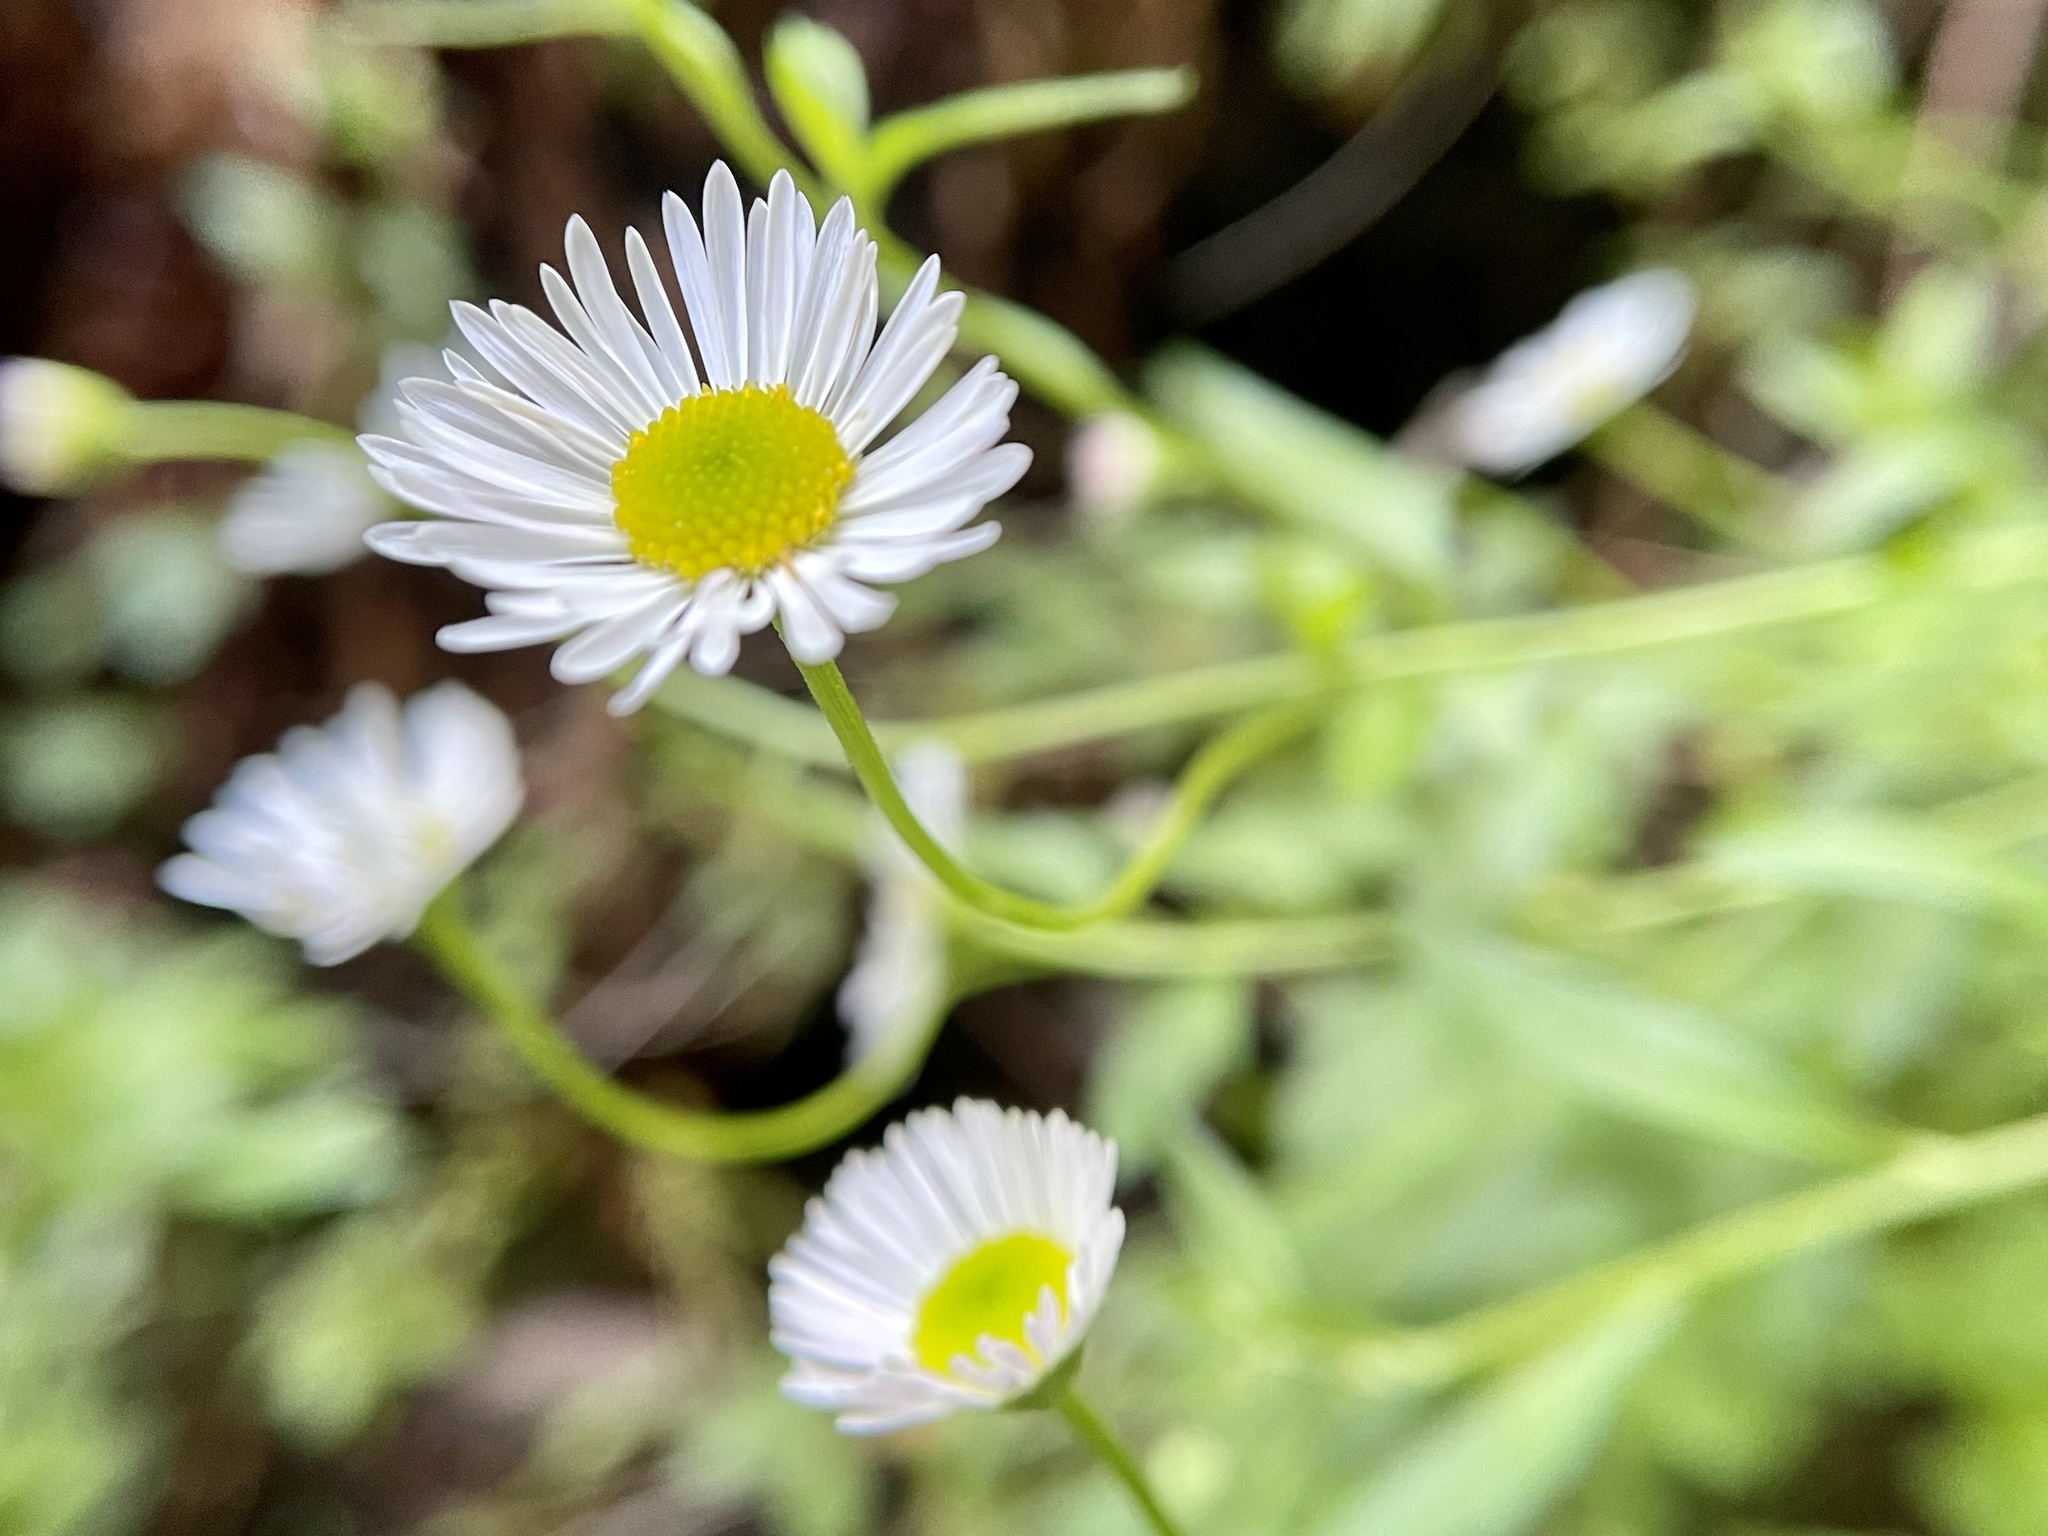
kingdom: Plantae
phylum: Tracheophyta
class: Magnoliopsida
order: Asterales
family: Asteraceae
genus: Erigeron
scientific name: Erigeron karvinskianus
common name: Mexican fleabane
